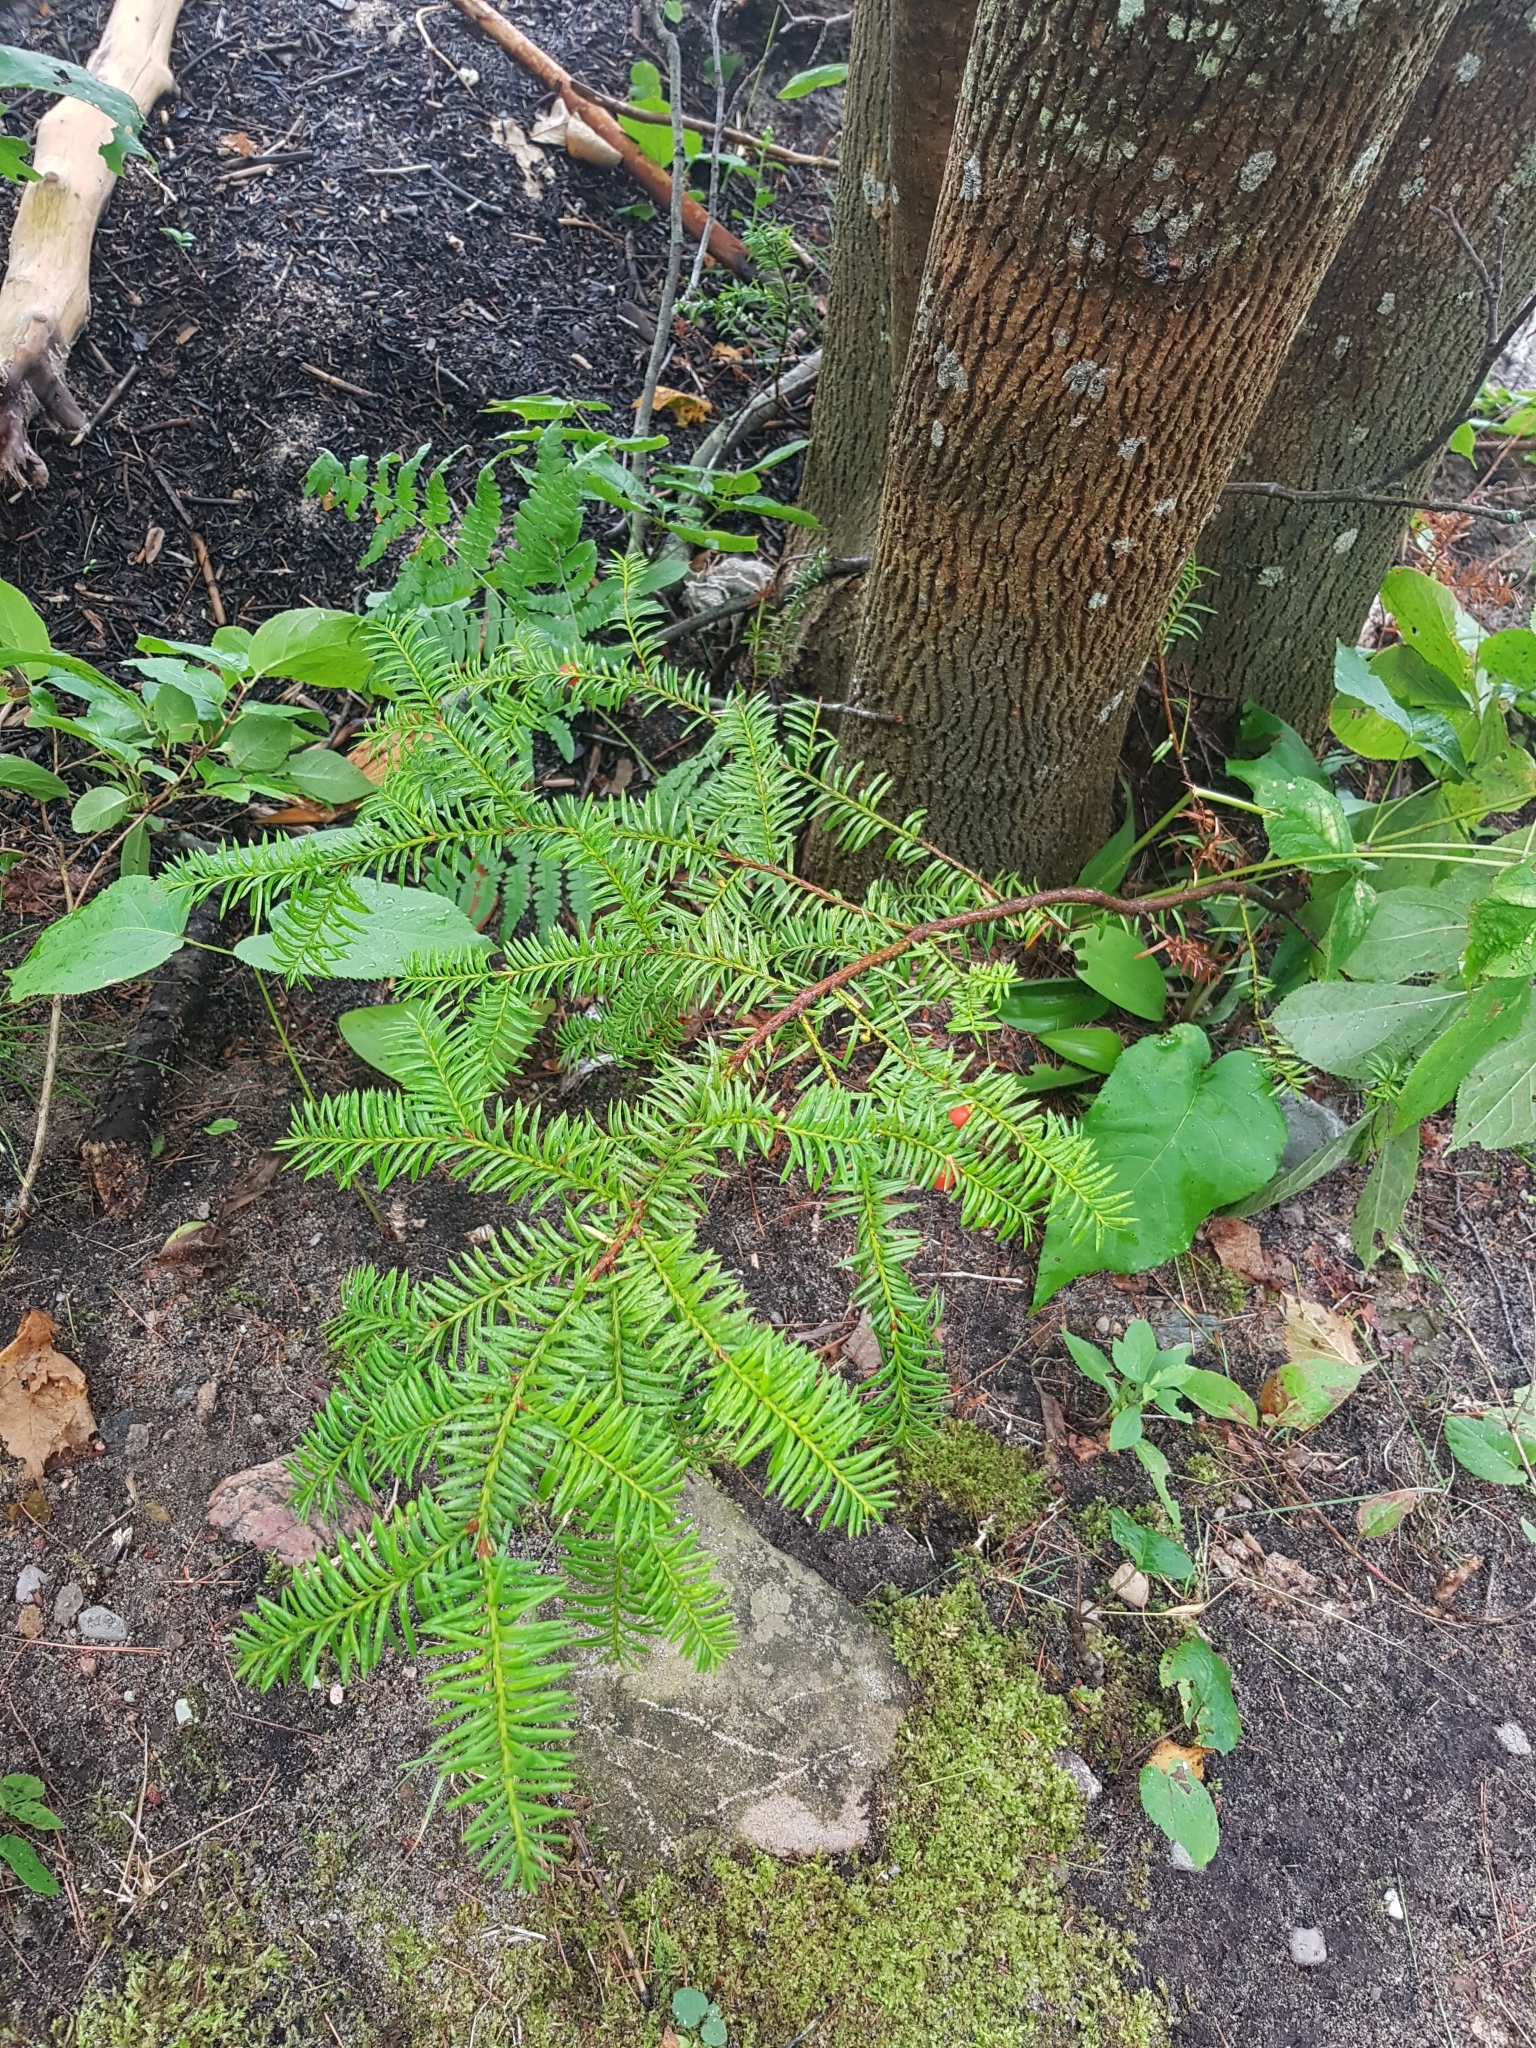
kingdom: Plantae
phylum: Tracheophyta
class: Pinopsida
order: Pinales
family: Taxaceae
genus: Taxus
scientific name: Taxus canadensis
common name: American yew
